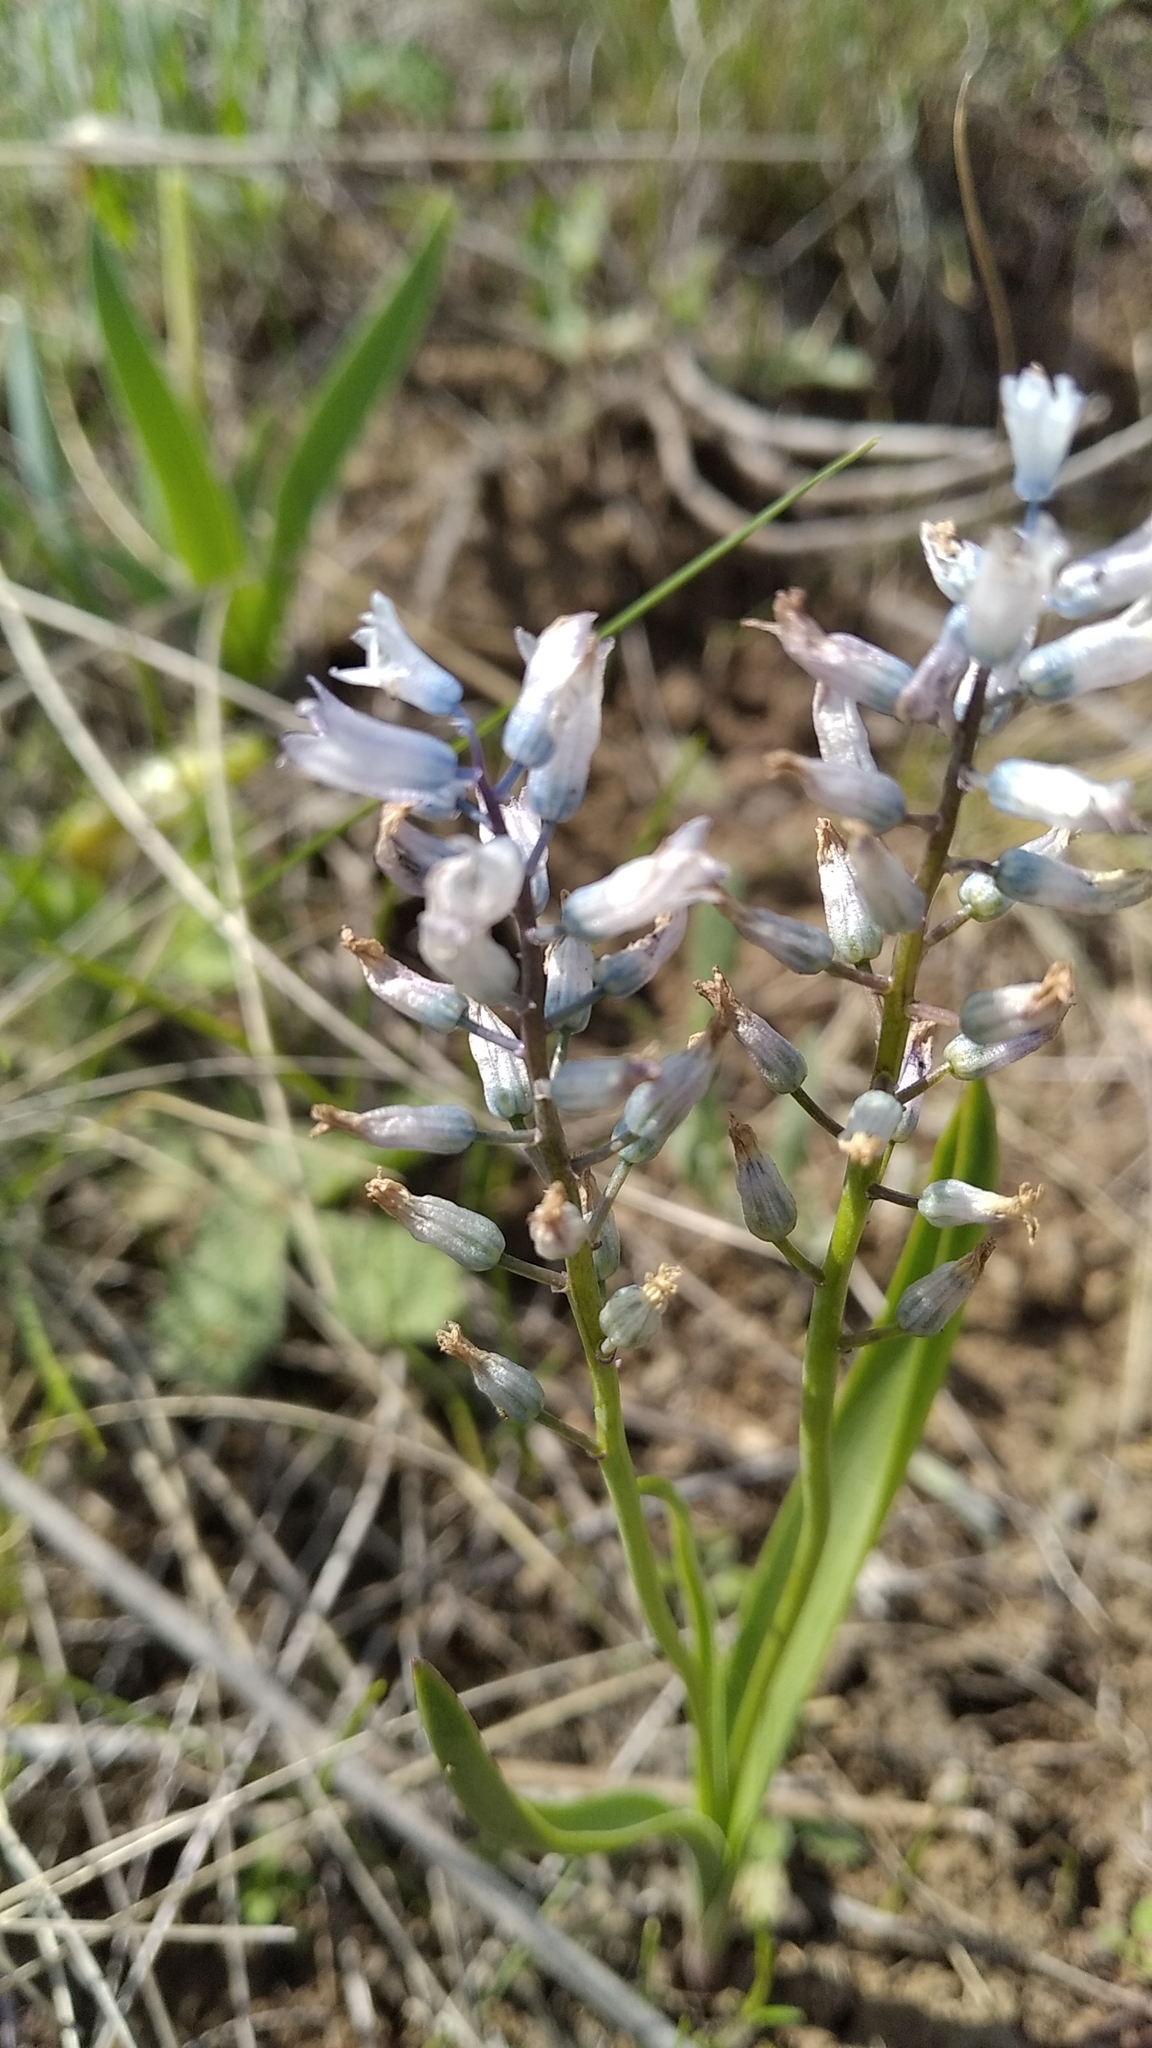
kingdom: Plantae
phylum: Tracheophyta
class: Liliopsida
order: Asparagales
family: Asparagaceae
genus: Hyacinthella
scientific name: Hyacinthella leucophaea
